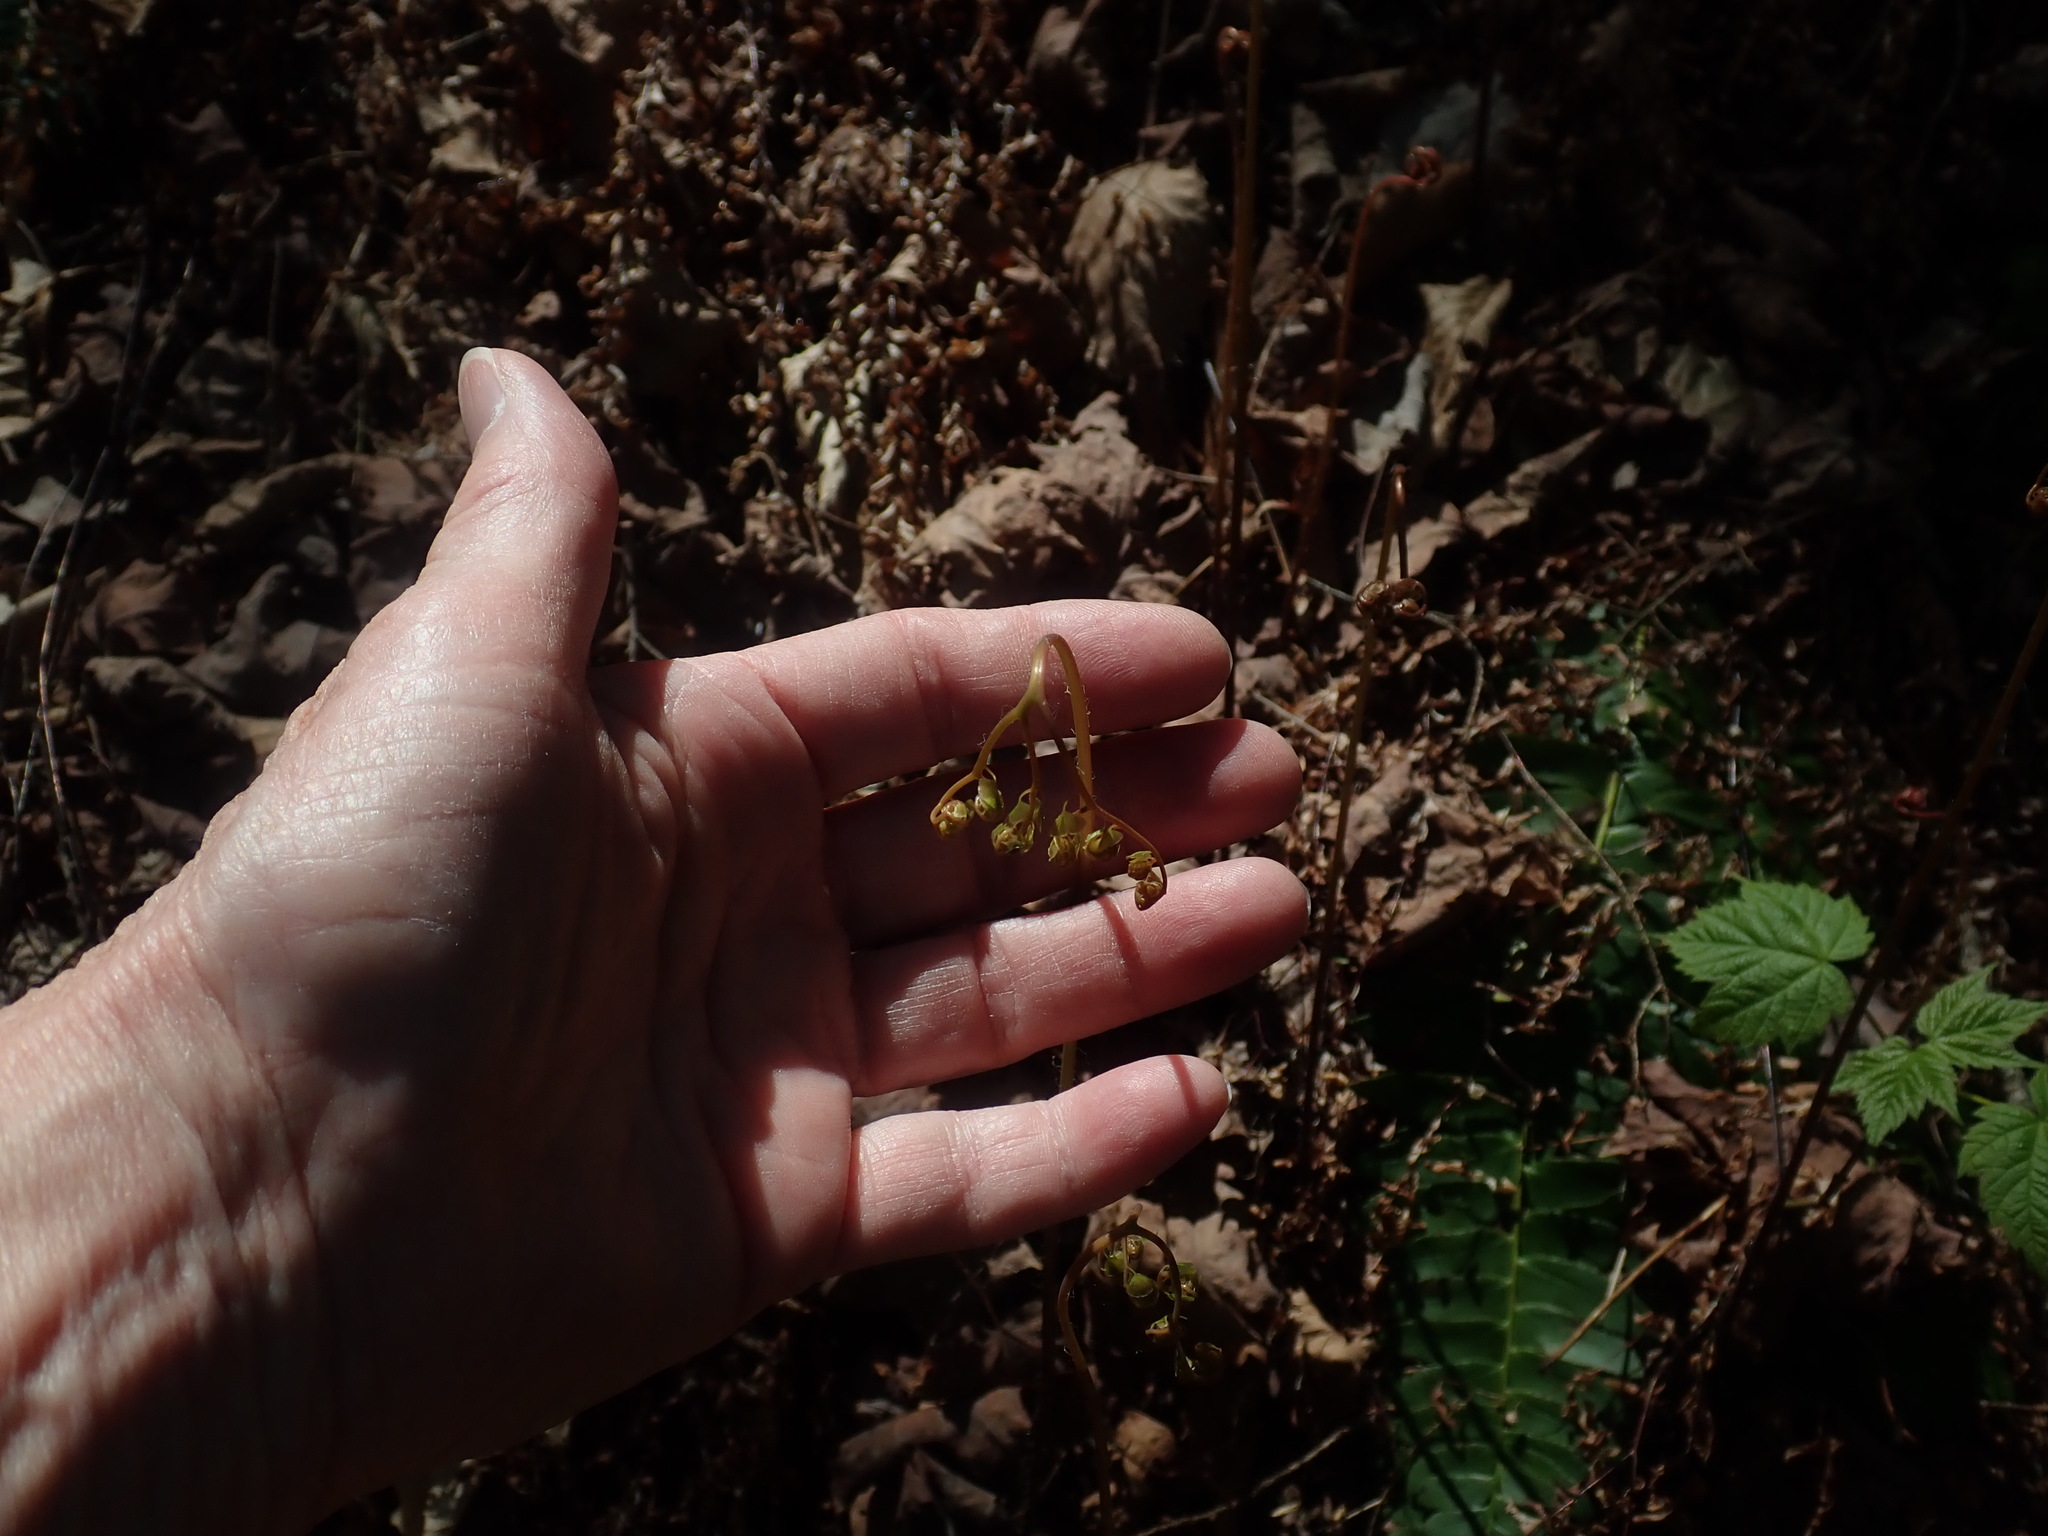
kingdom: Plantae
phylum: Tracheophyta
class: Polypodiopsida
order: Polypodiales
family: Pteridaceae
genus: Adiantum
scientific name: Adiantum pedatum
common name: Five-finger fern
